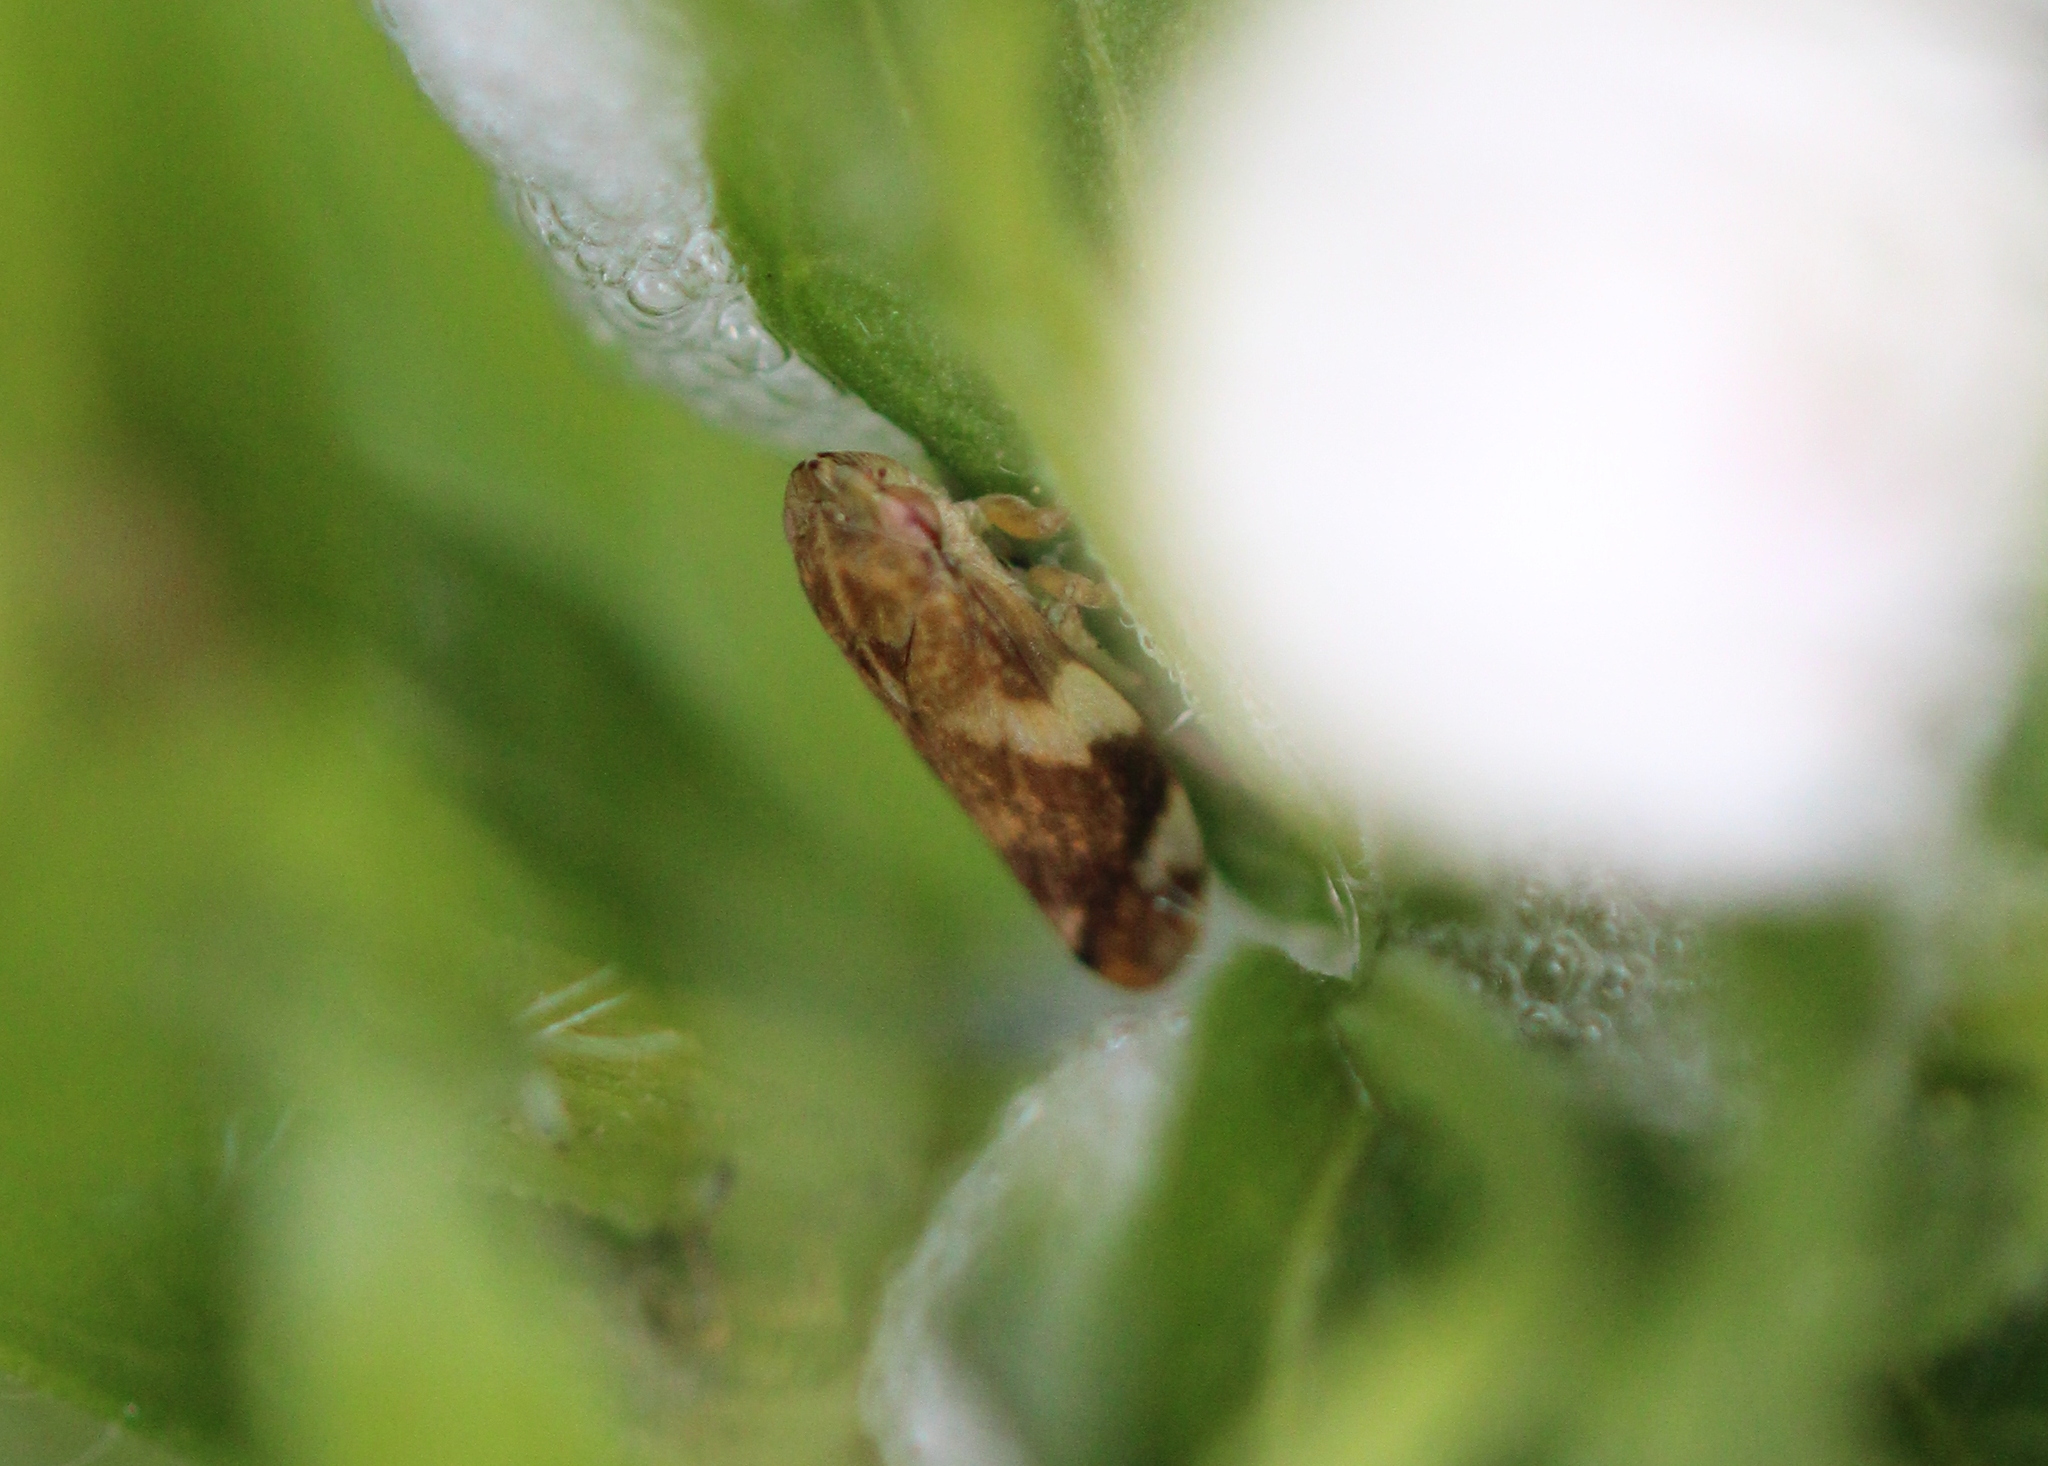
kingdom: Animalia
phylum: Arthropoda
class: Insecta
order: Hemiptera
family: Aphrophoridae
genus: Philaenus
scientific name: Philaenus spumarius
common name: Meadow spittlebug
